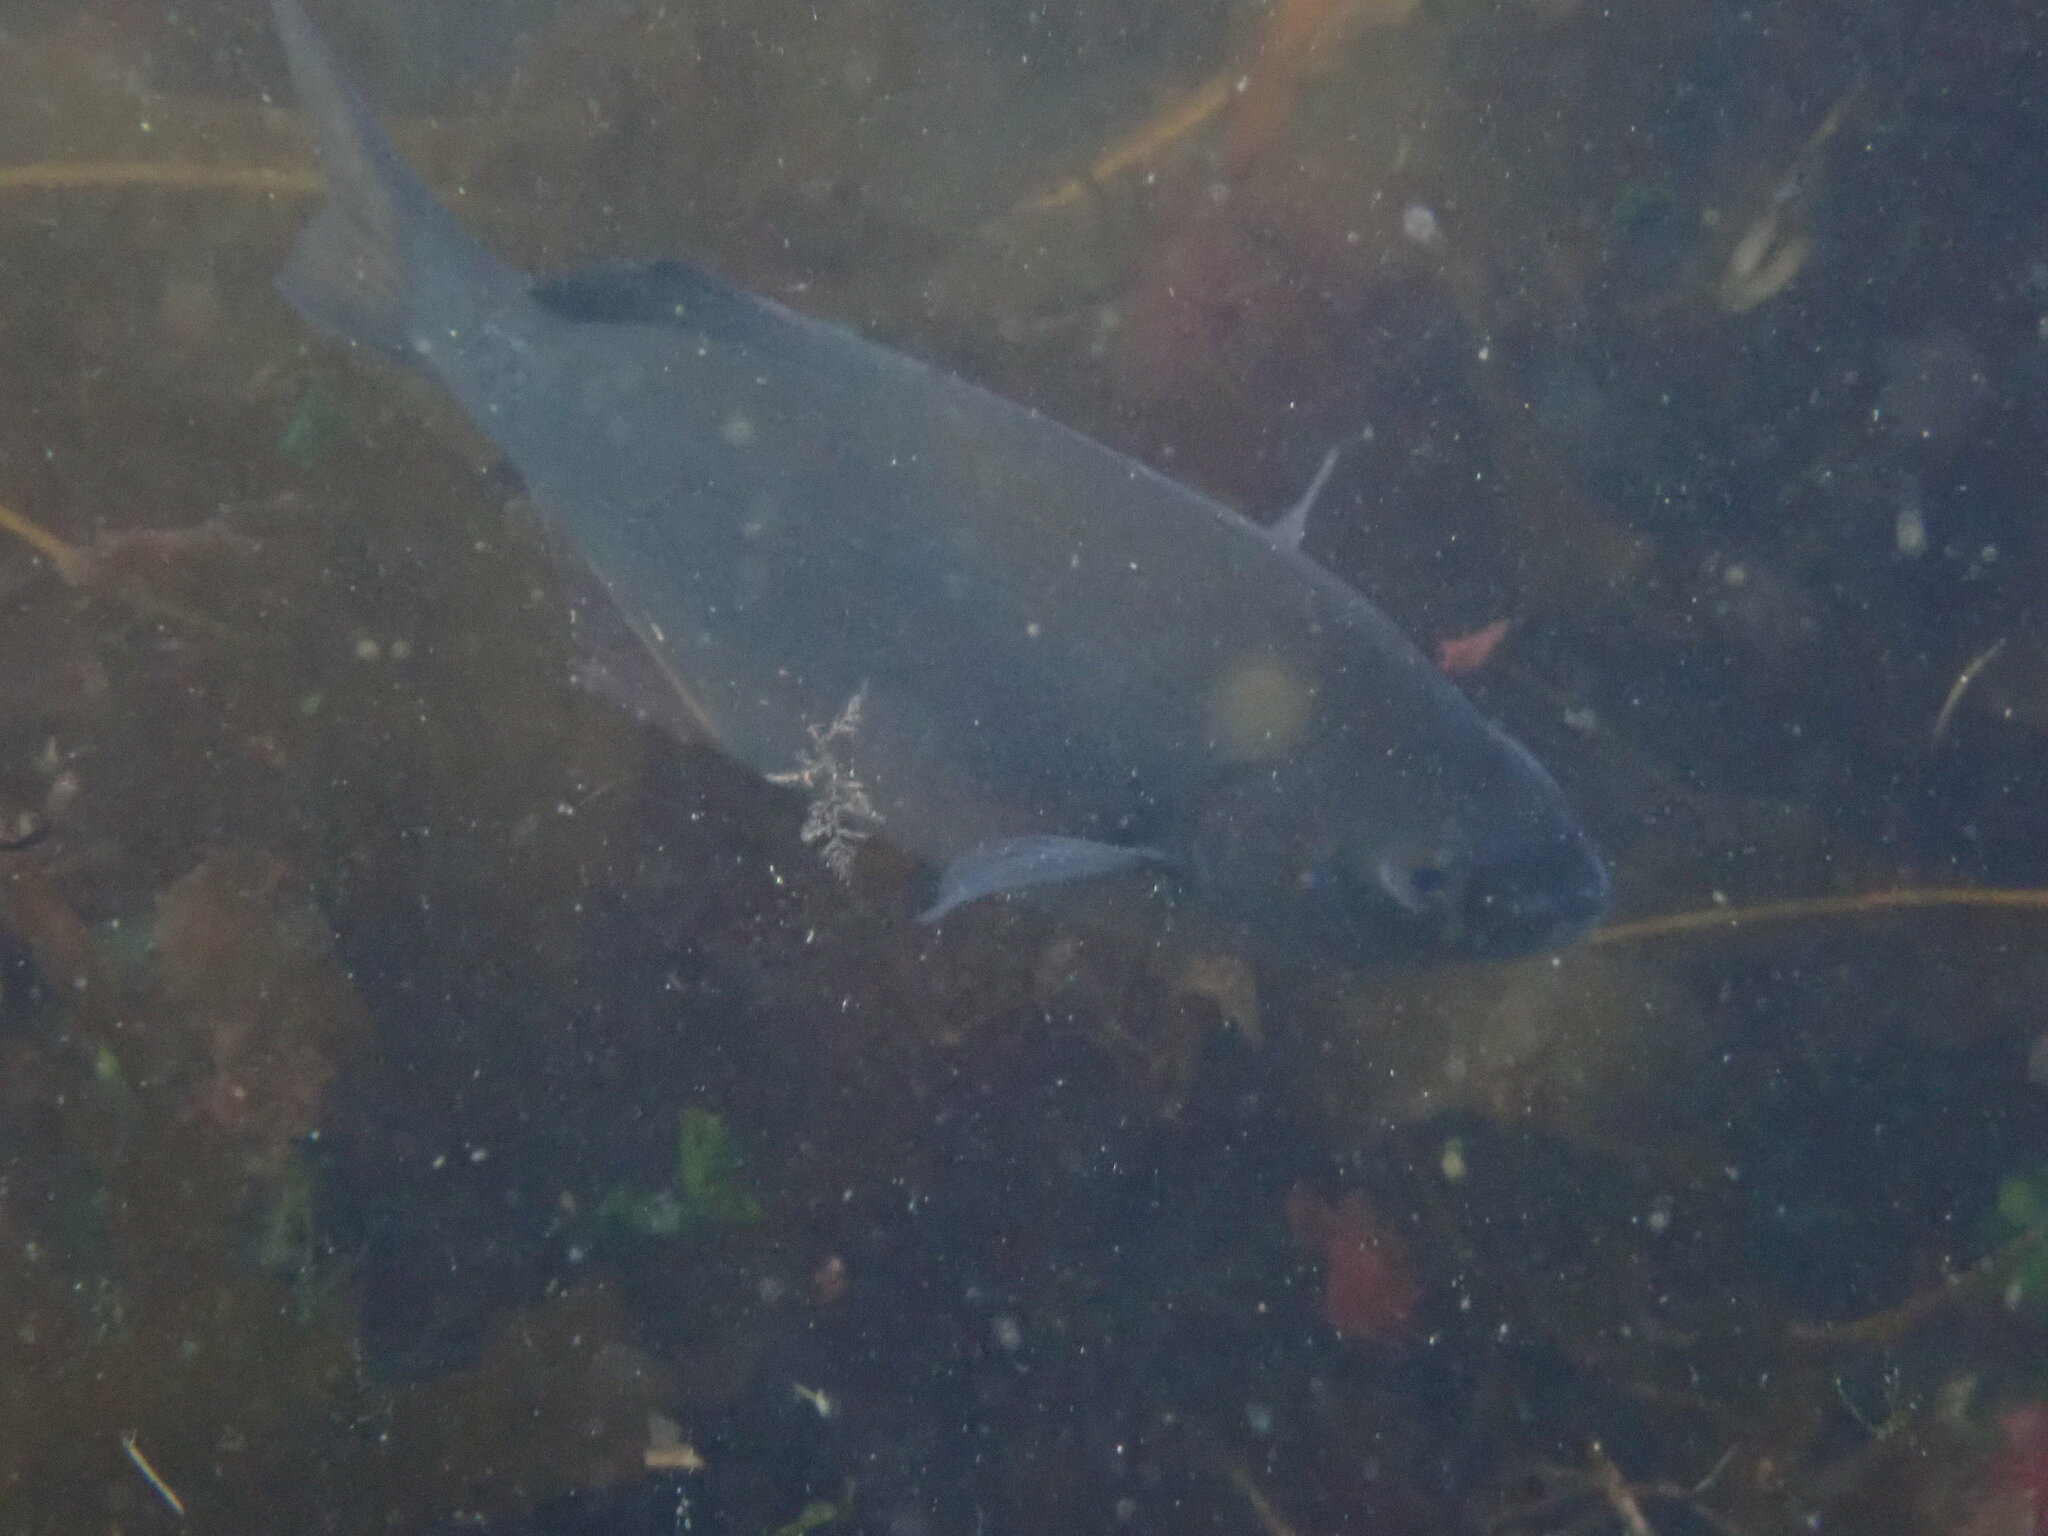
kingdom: Animalia
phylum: Chordata
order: Perciformes
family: Embiotocidae
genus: Embiotoca
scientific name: Embiotoca lateralis
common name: Striped surfperch
